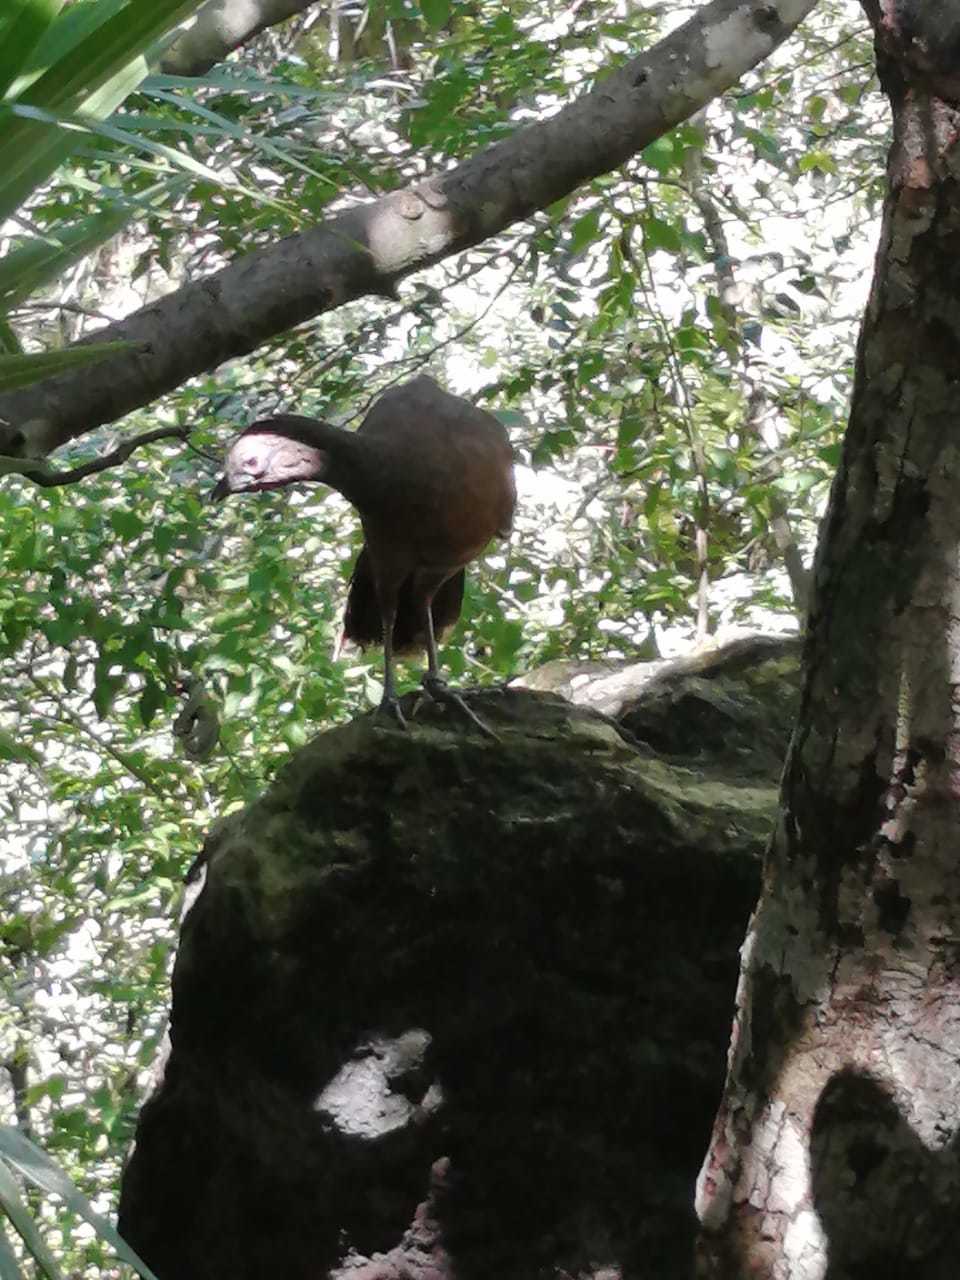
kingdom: Animalia
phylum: Chordata
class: Aves
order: Galliformes
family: Cracidae
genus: Ortalis
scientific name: Ortalis vetula
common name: Plain chachalaca
